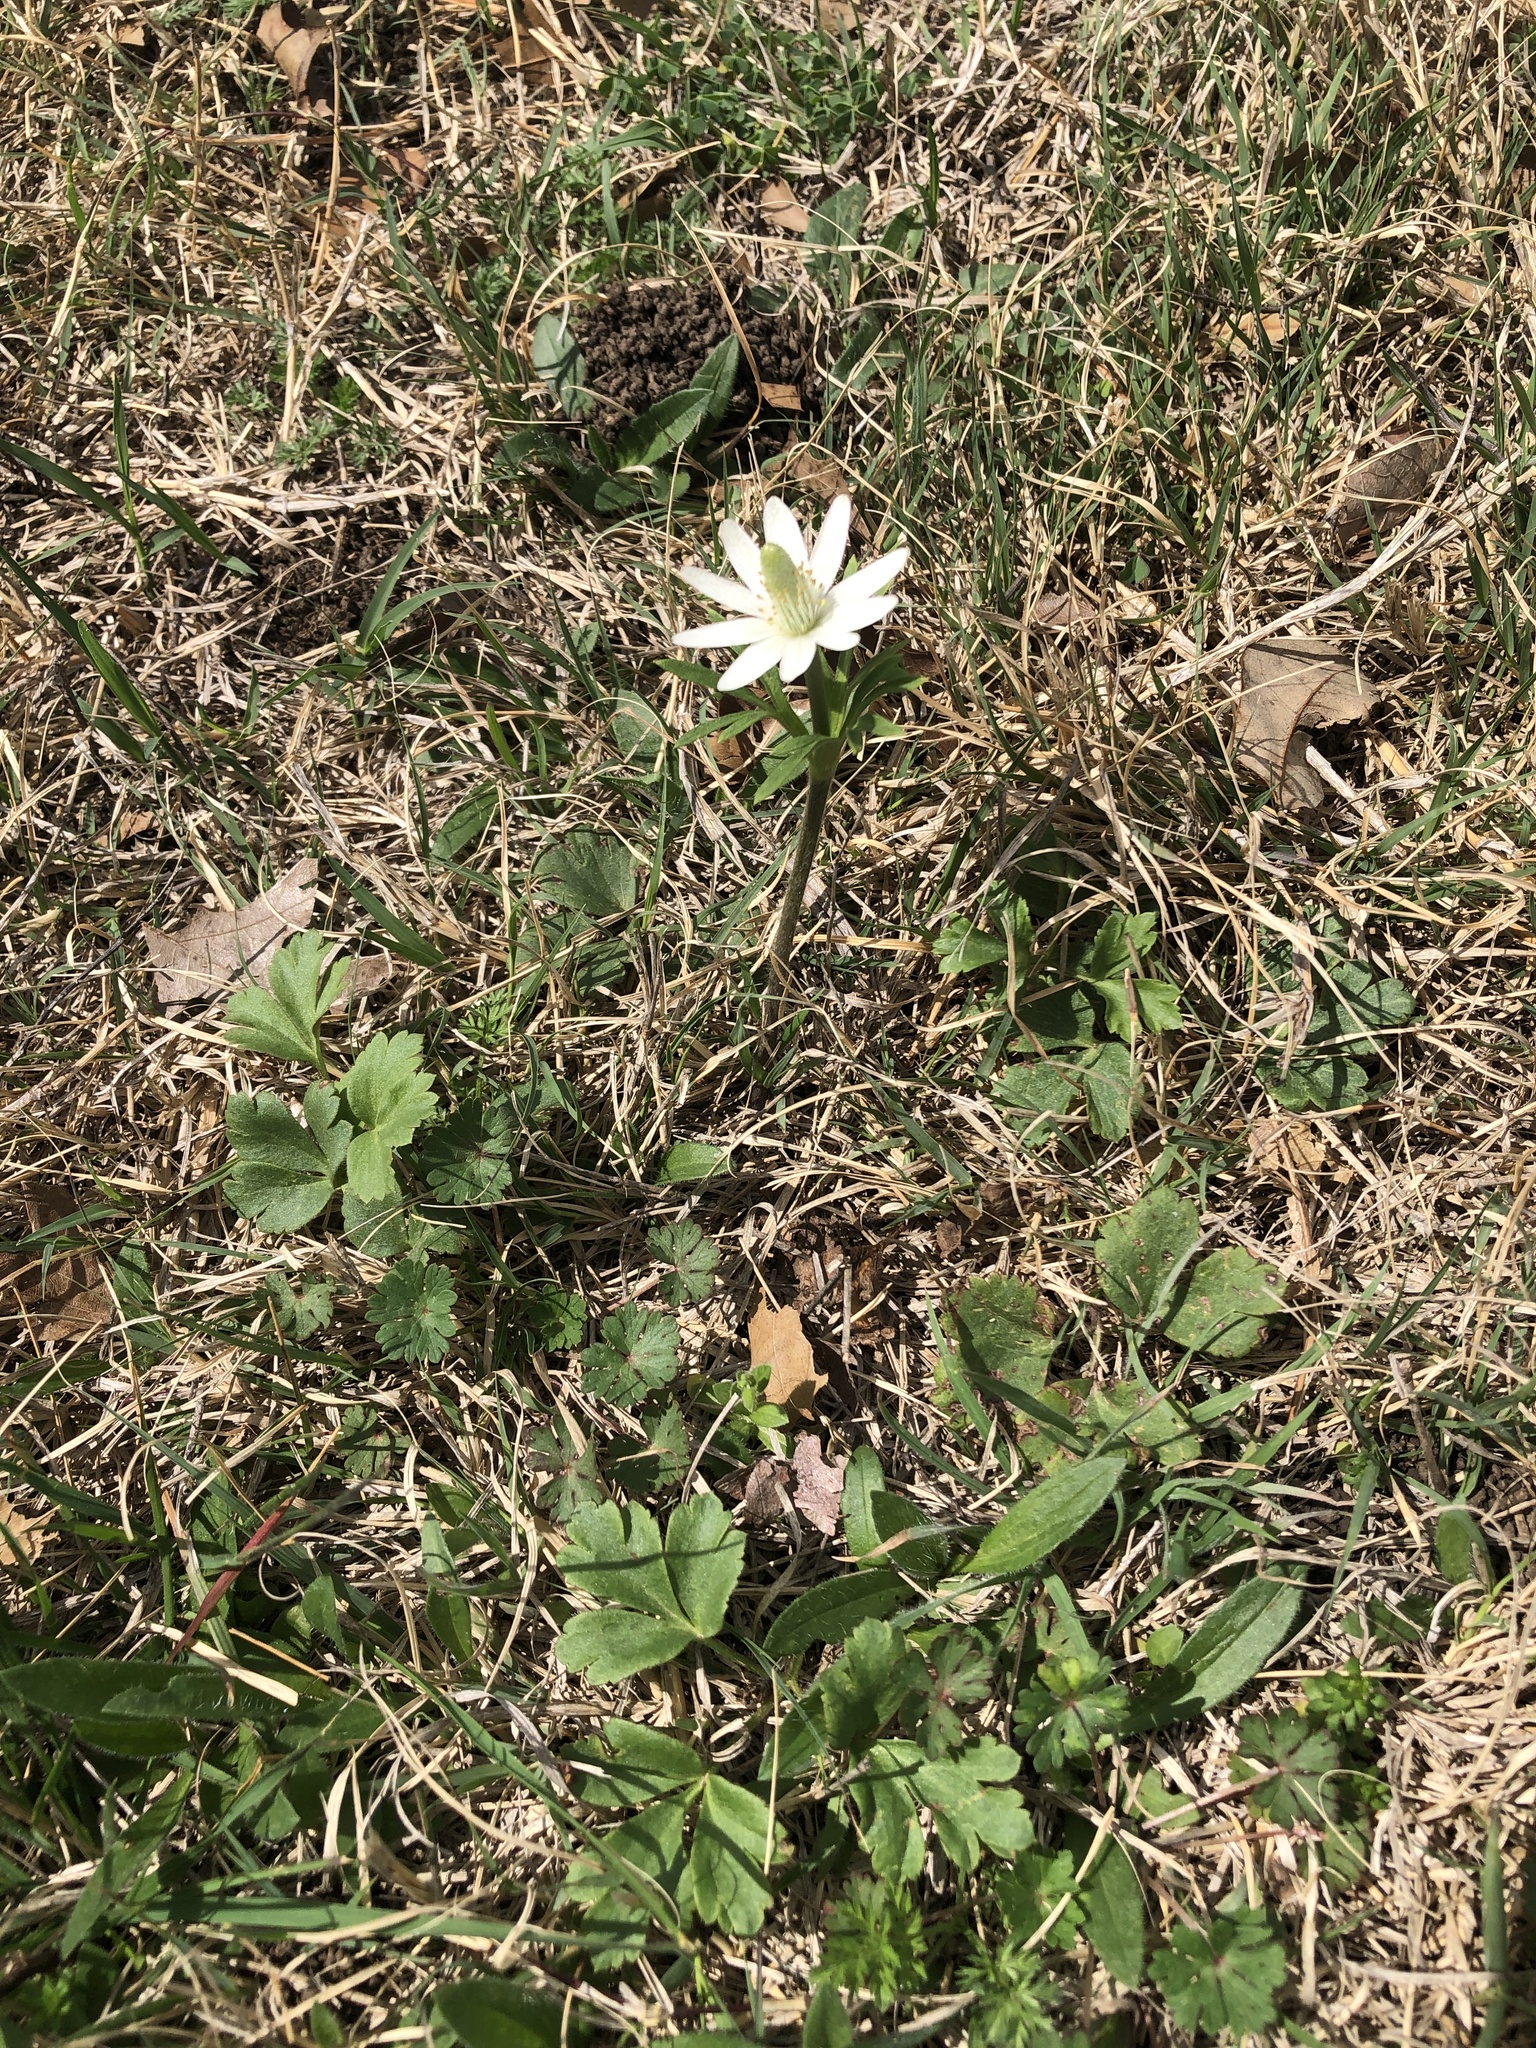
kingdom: Plantae
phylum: Tracheophyta
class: Magnoliopsida
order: Ranunculales
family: Ranunculaceae
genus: Anemone
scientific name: Anemone berlandieri
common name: Ten-petal anemone
